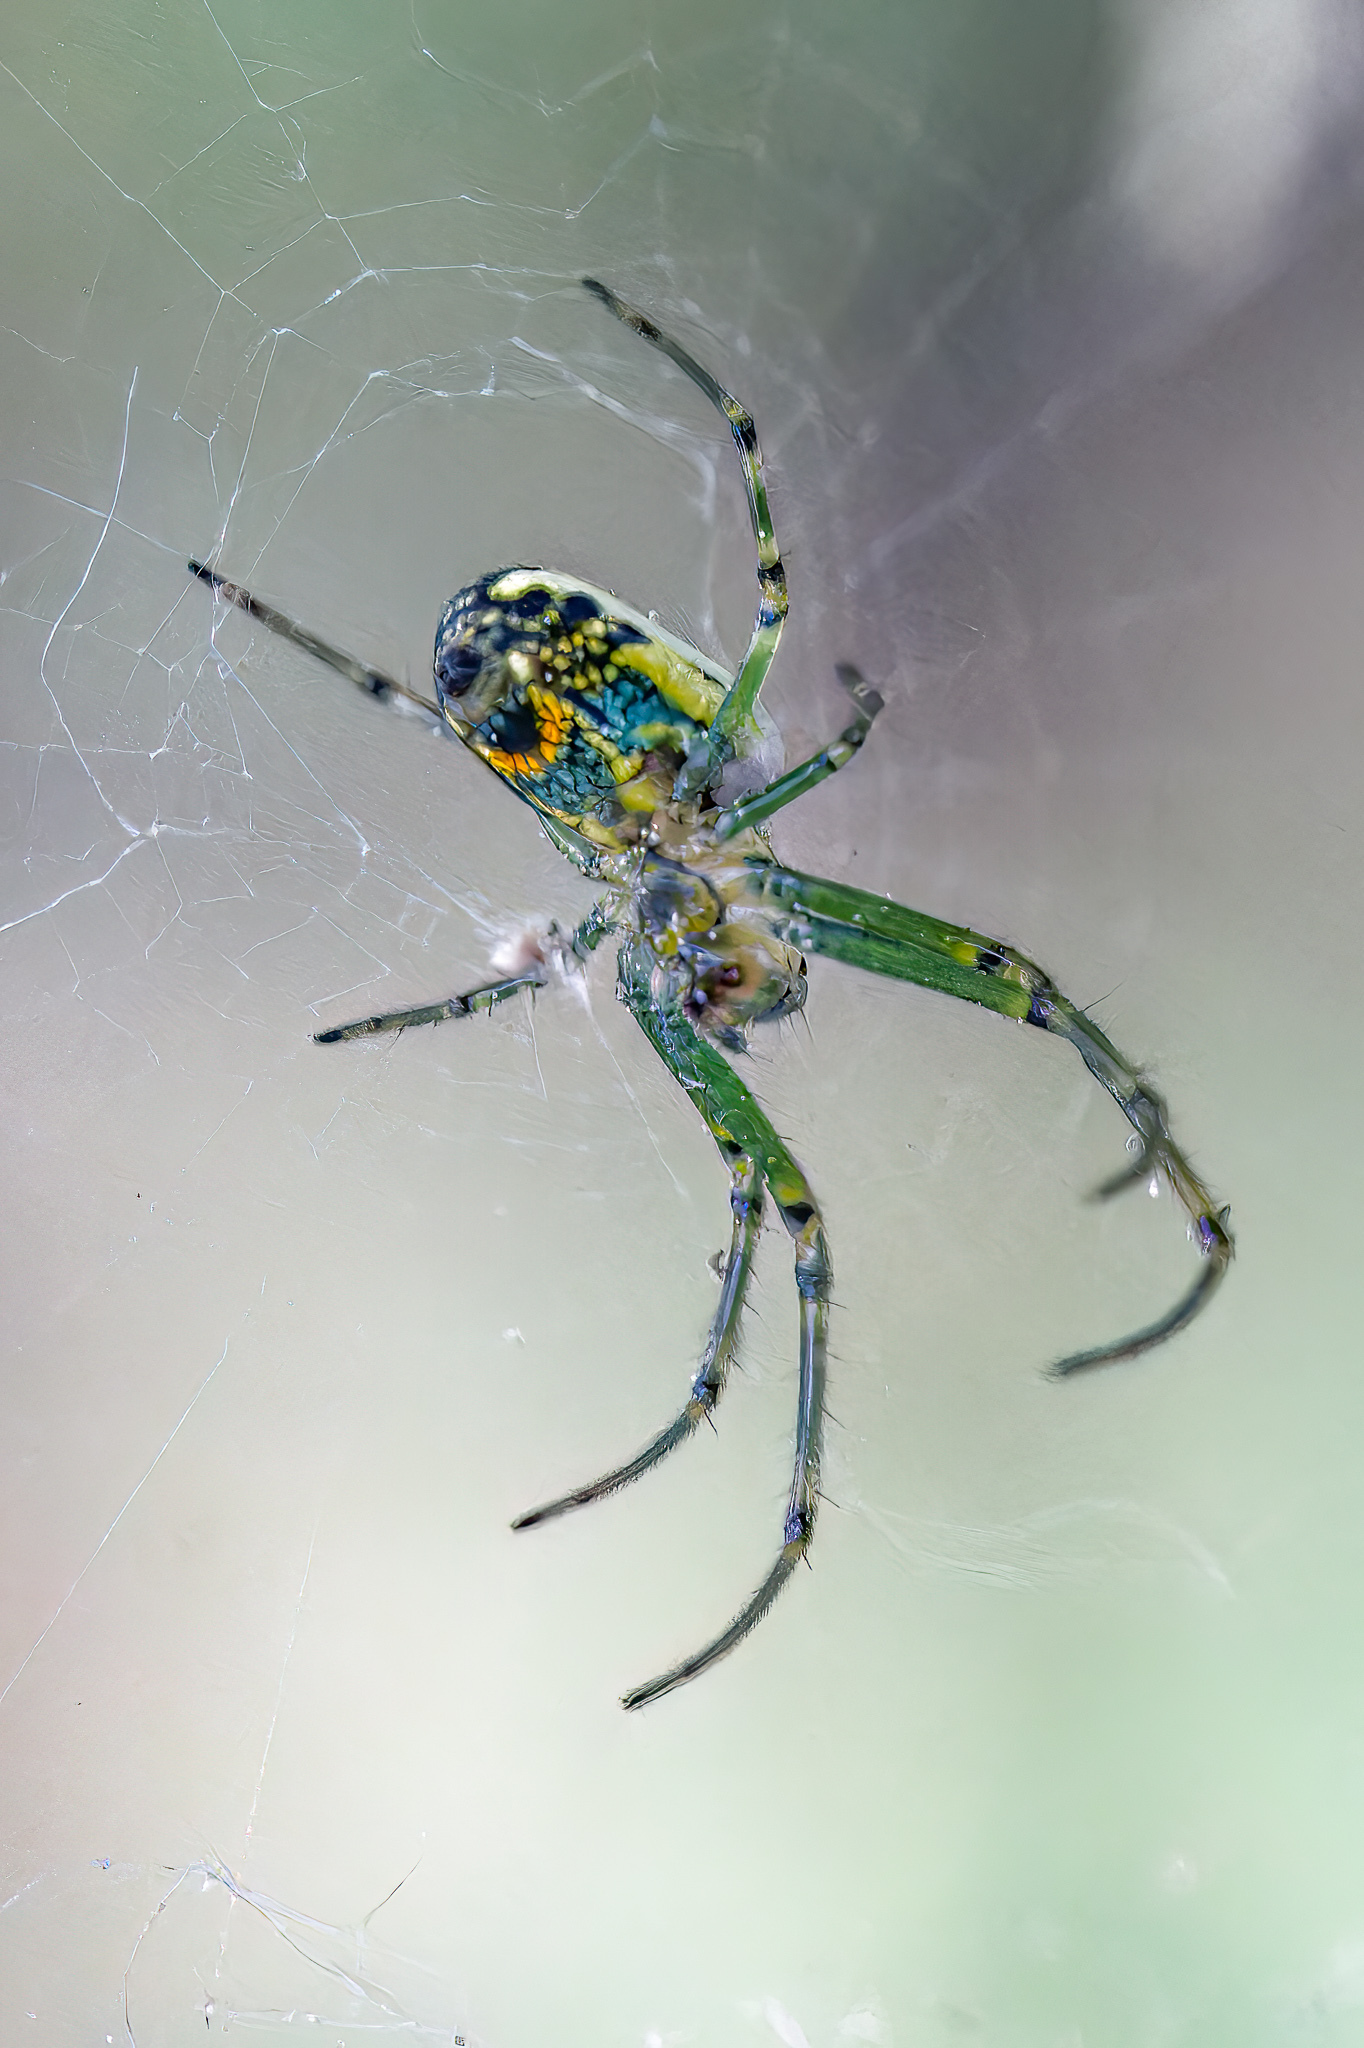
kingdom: Animalia
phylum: Arthropoda
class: Arachnida
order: Araneae
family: Tetragnathidae
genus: Leucauge
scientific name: Leucauge venusta
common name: Longjawed orb weavers
